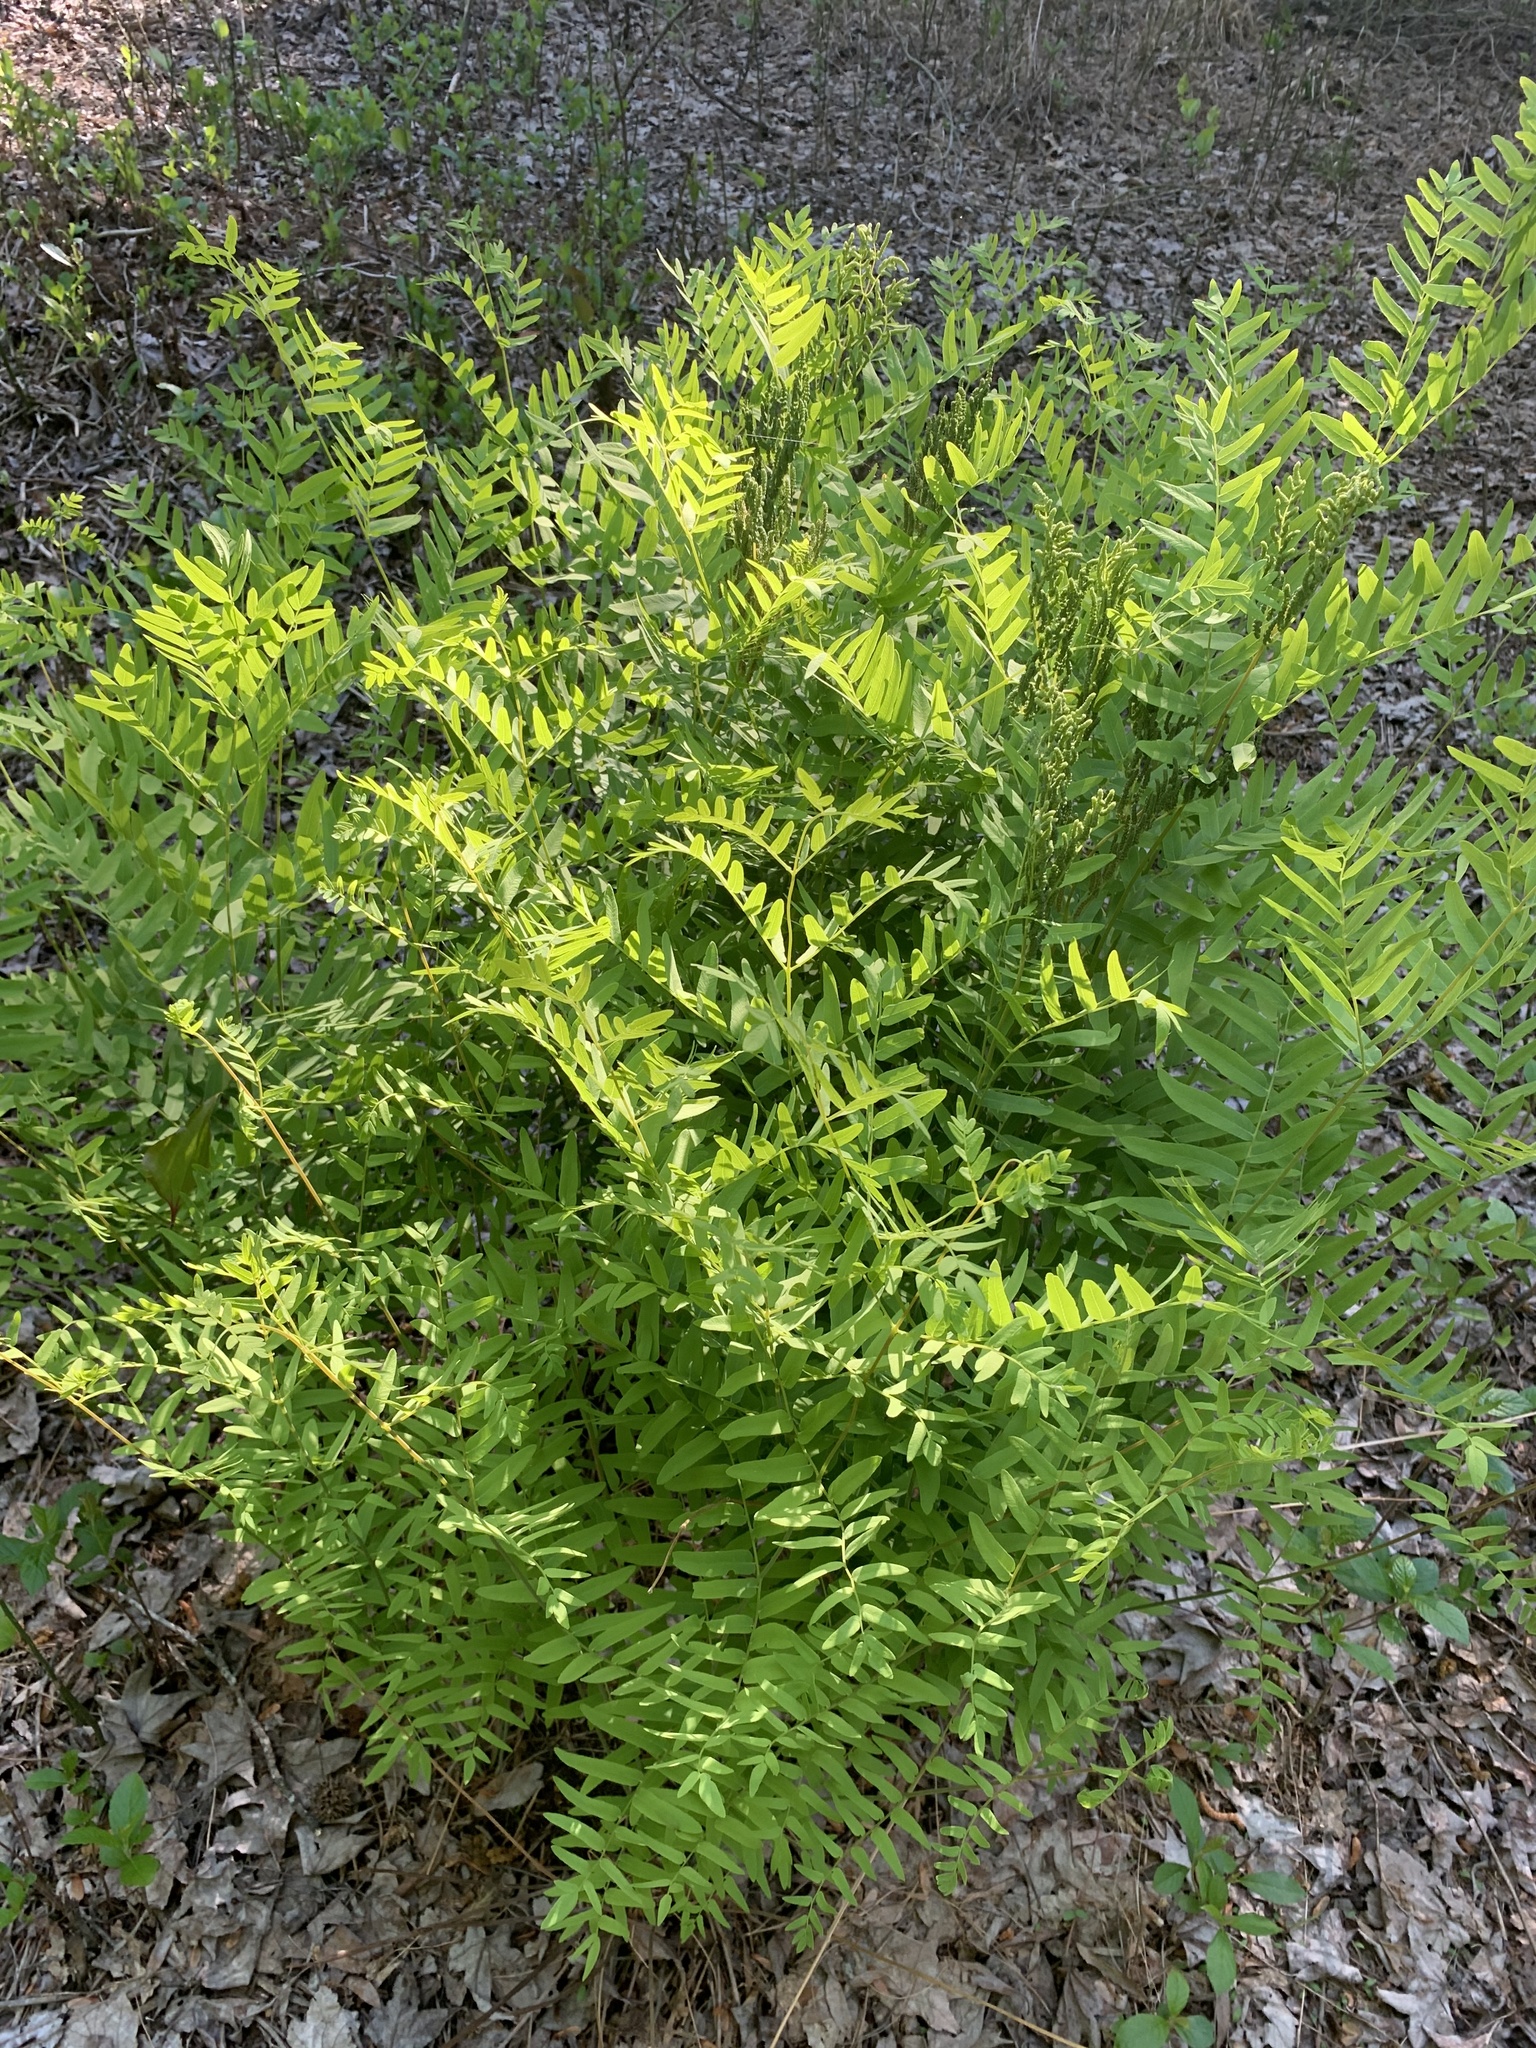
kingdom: Plantae
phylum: Tracheophyta
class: Polypodiopsida
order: Osmundales
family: Osmundaceae
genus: Osmunda
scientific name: Osmunda spectabilis
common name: American royal fern
